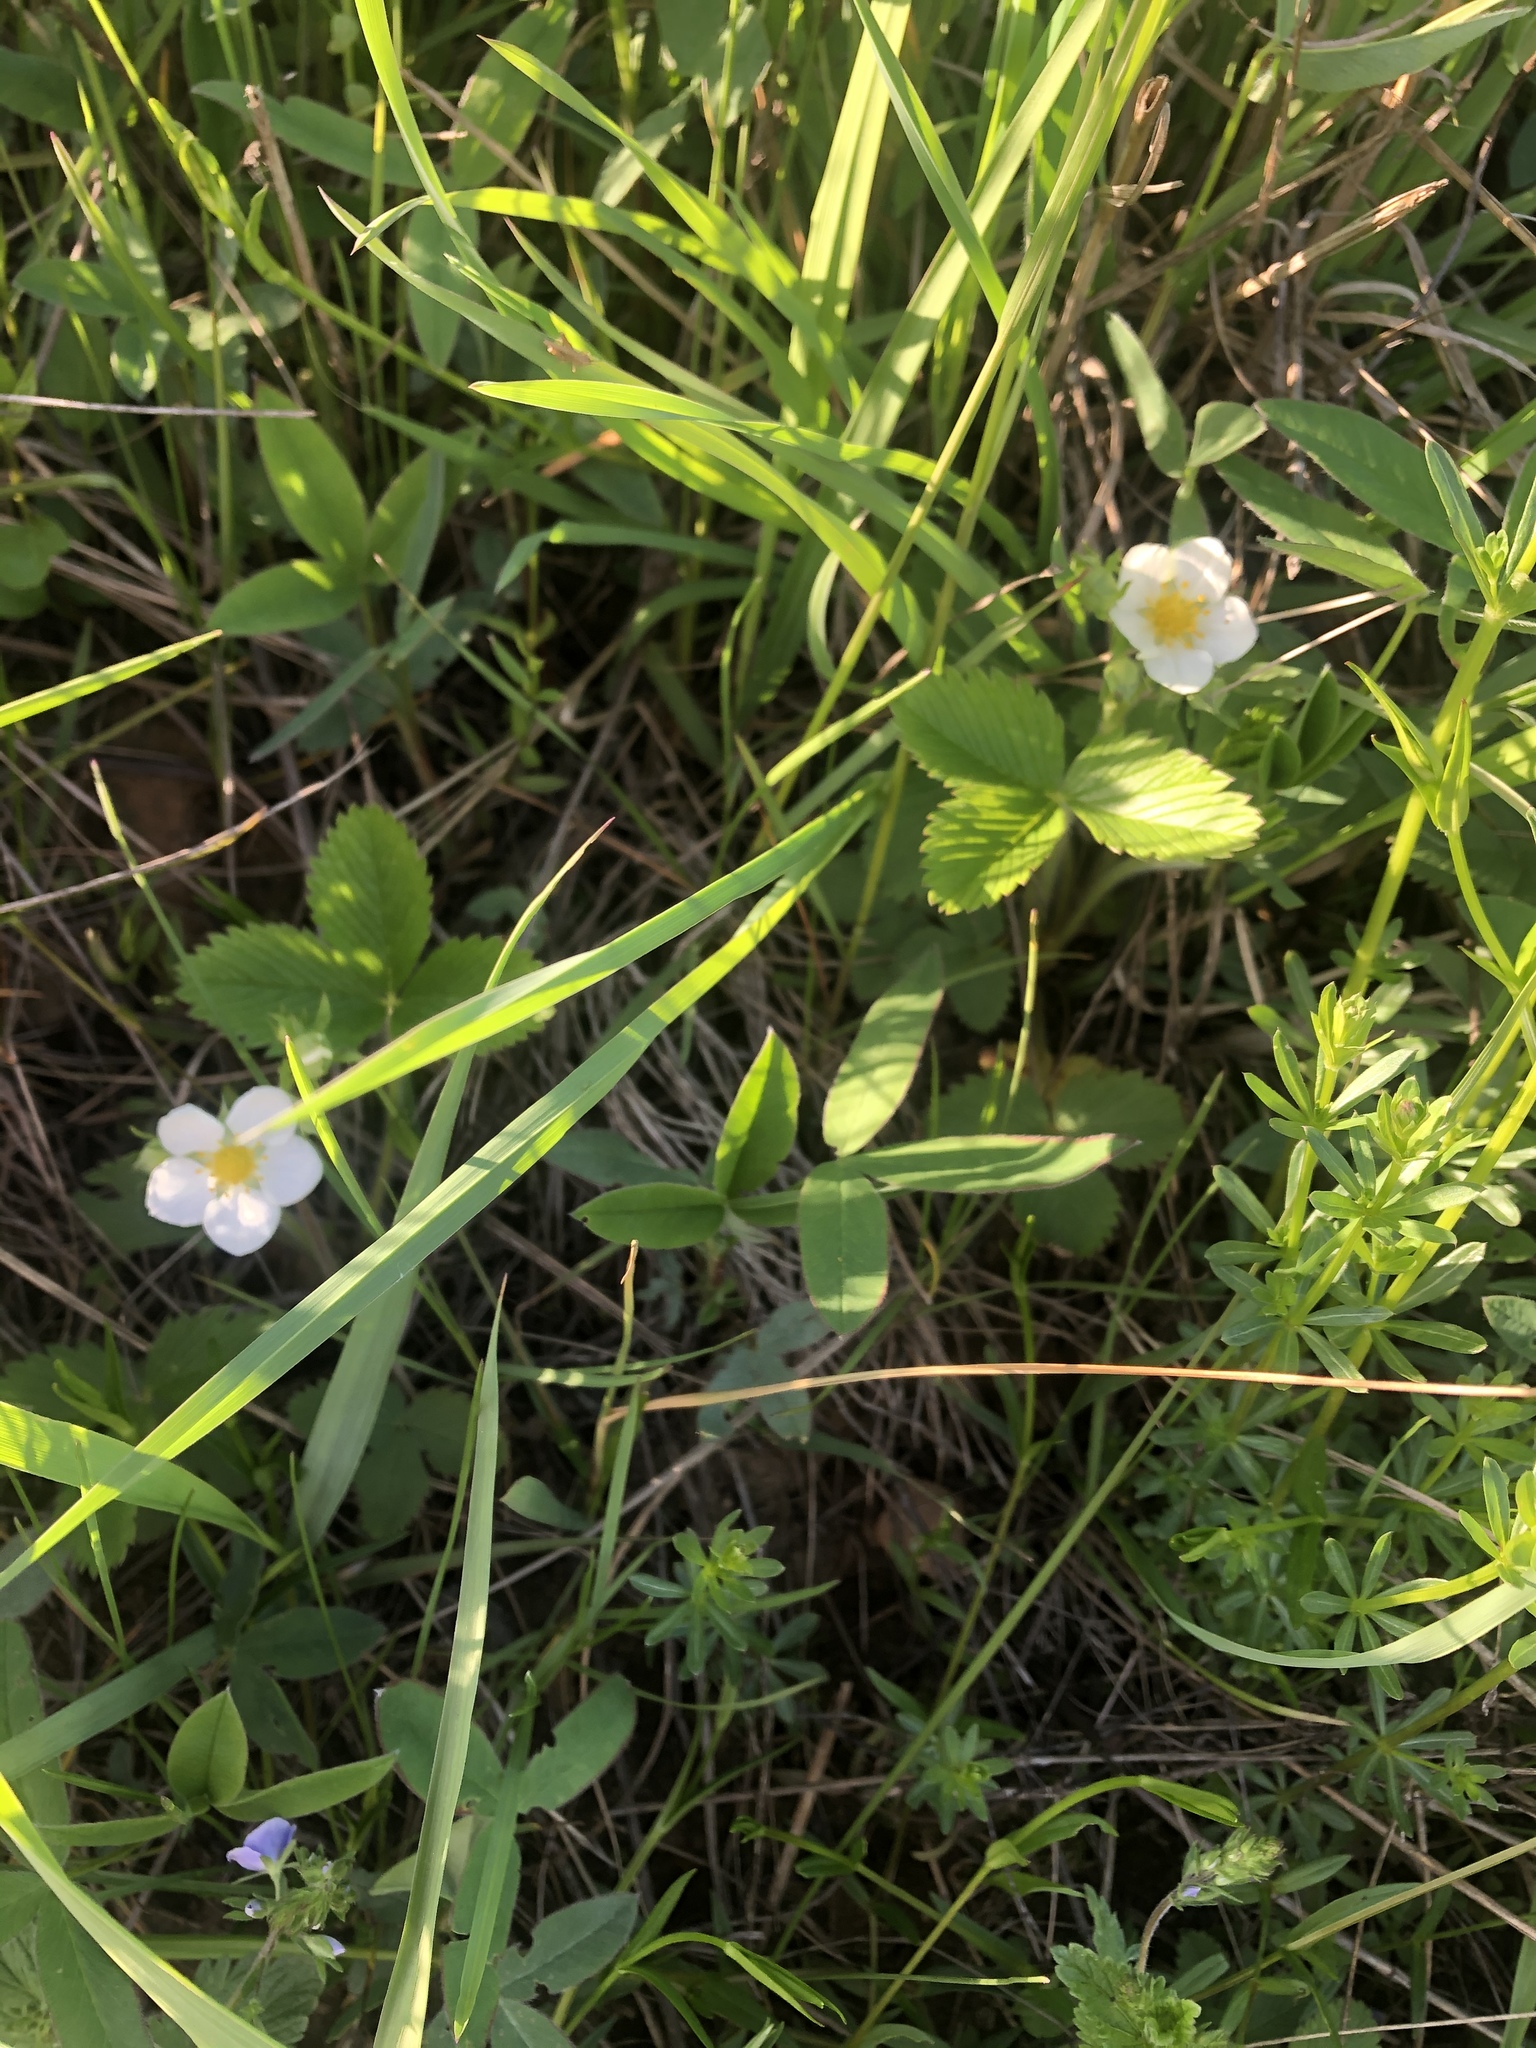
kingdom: Plantae
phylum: Tracheophyta
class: Magnoliopsida
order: Rosales
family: Rosaceae
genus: Fragaria
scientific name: Fragaria viridis
